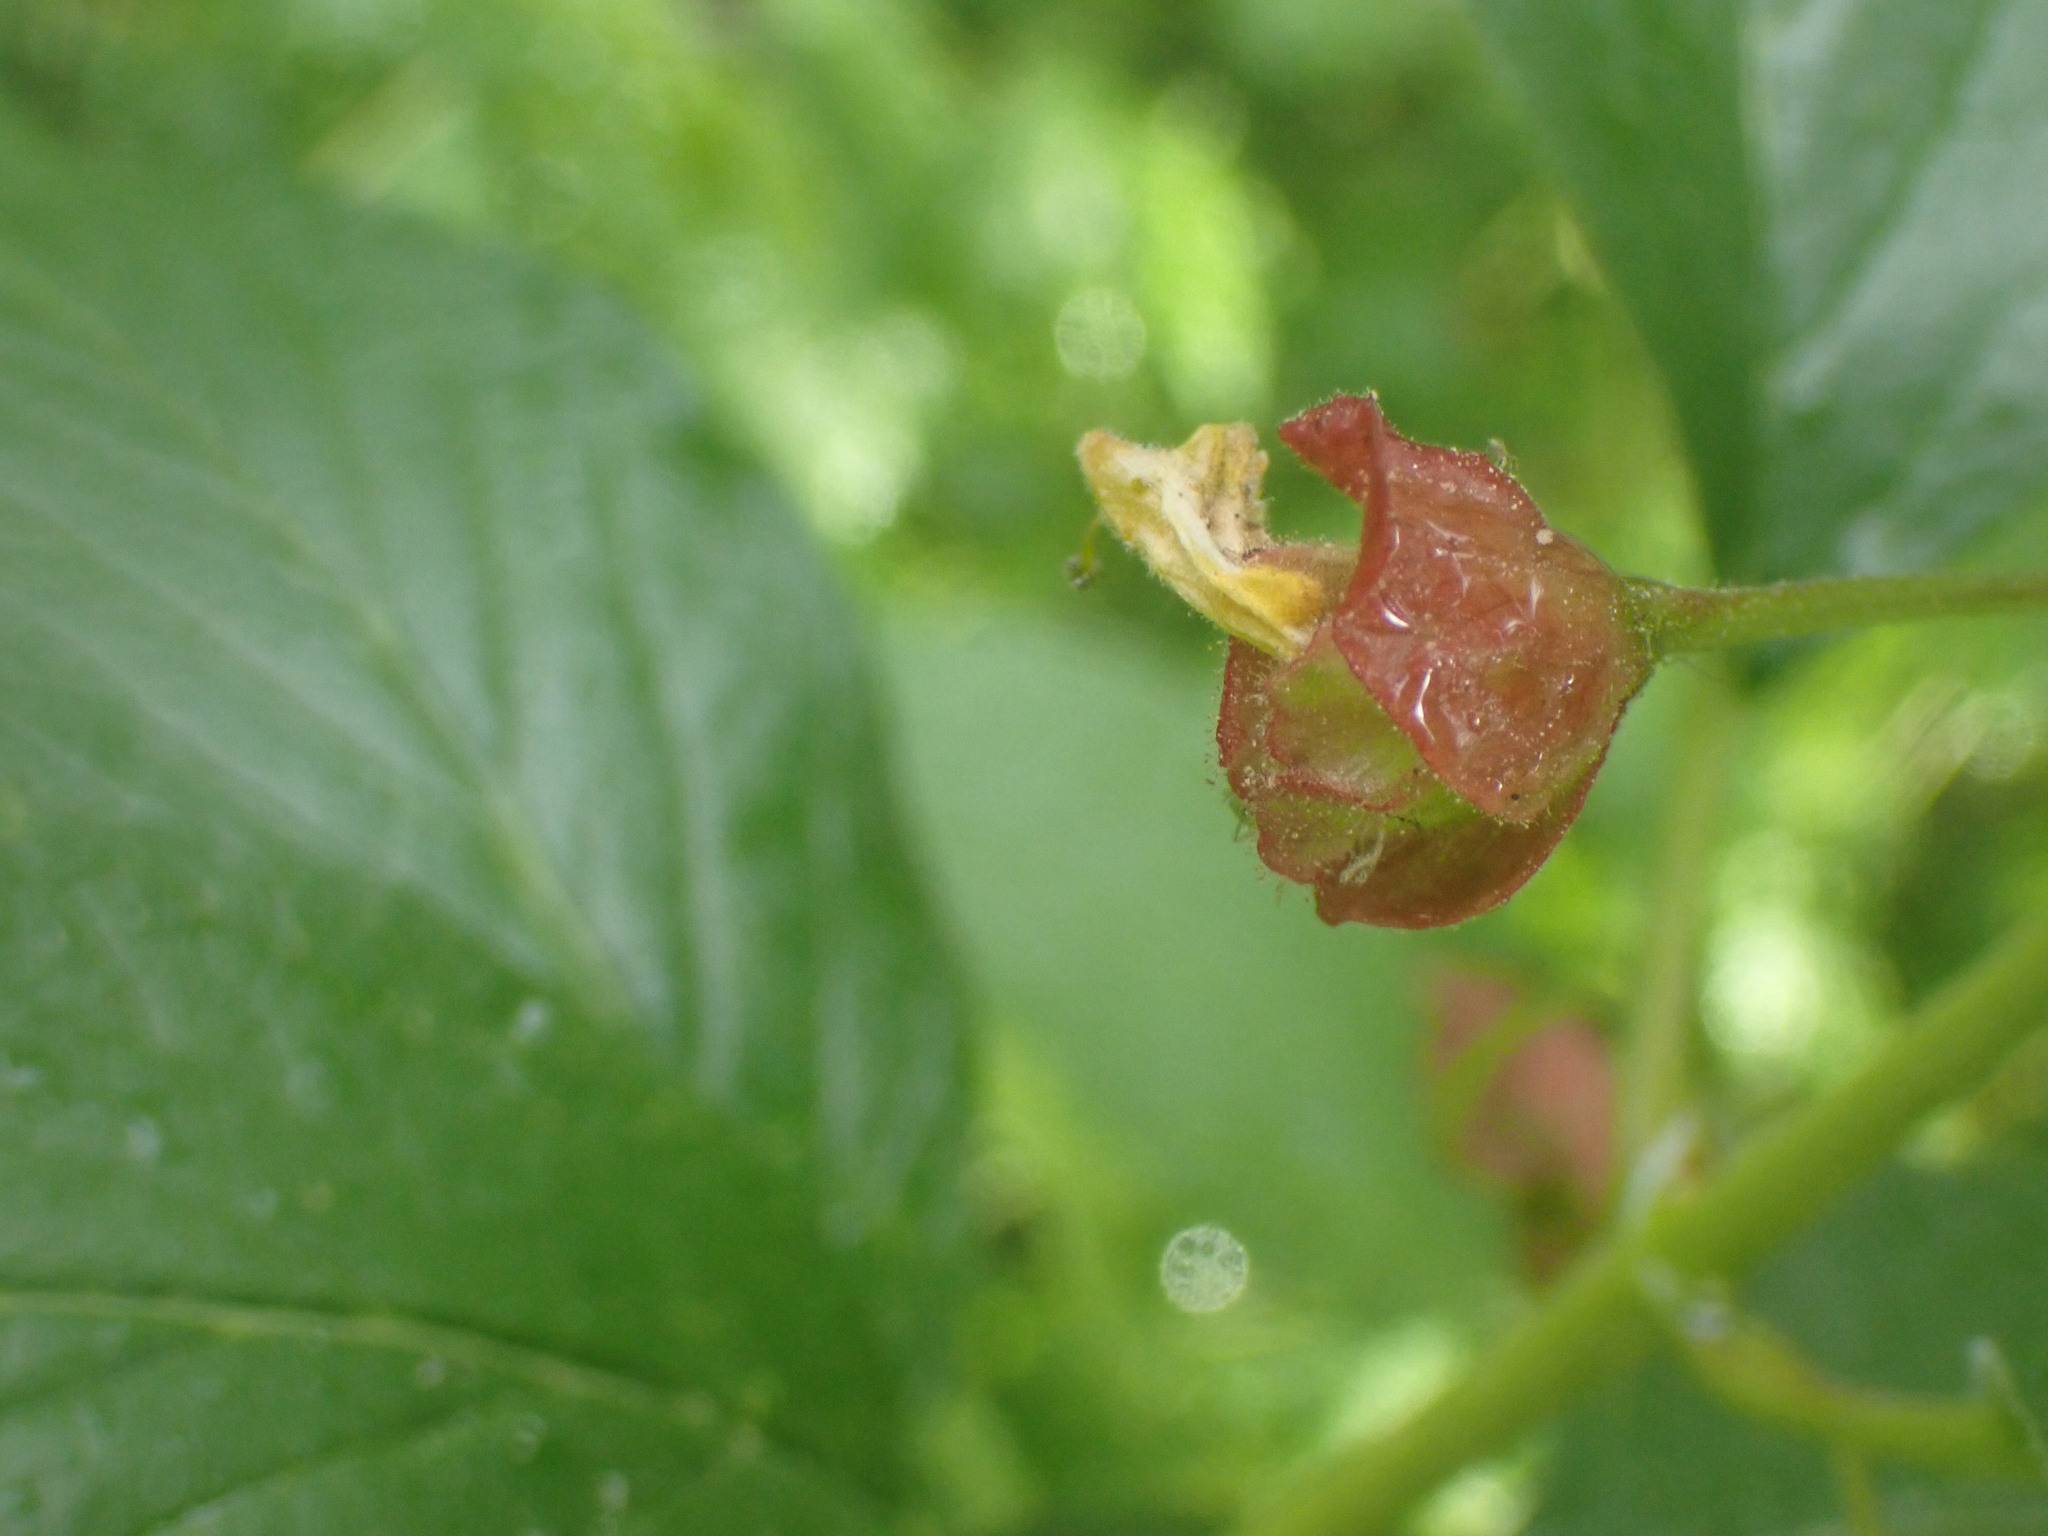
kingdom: Plantae
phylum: Tracheophyta
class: Magnoliopsida
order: Dipsacales
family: Caprifoliaceae
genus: Lonicera
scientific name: Lonicera involucrata
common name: Californian honeysuckle
